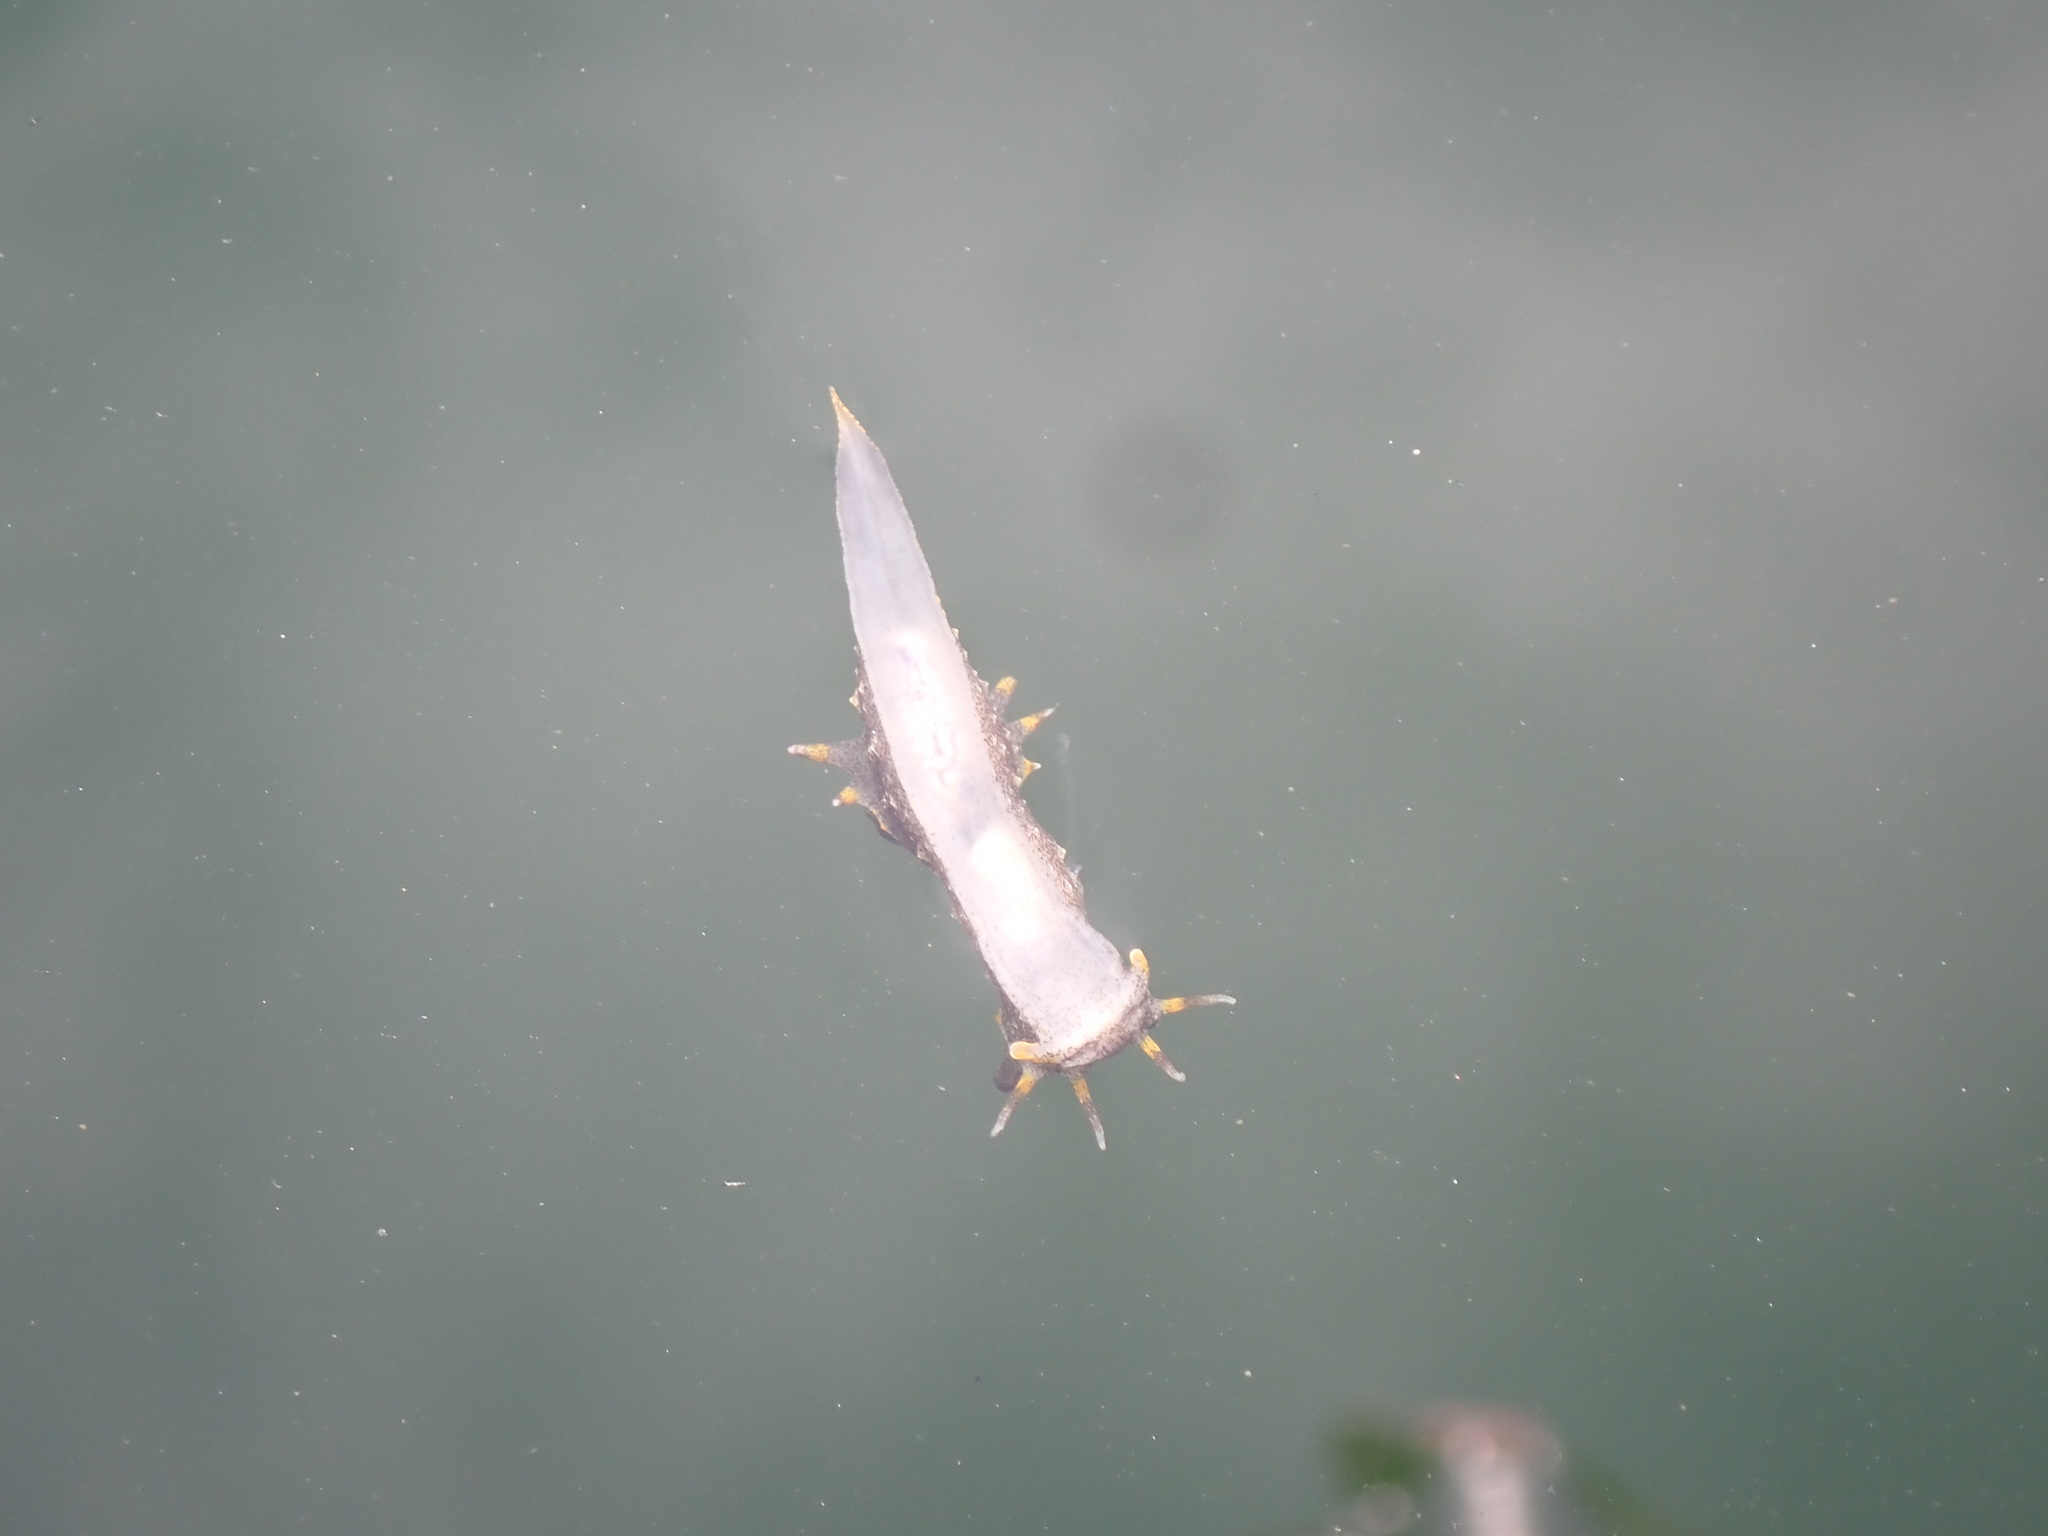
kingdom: Animalia
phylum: Mollusca
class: Gastropoda
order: Nudibranchia
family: Polyceridae
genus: Polycera
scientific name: Polycera hedgpethi
